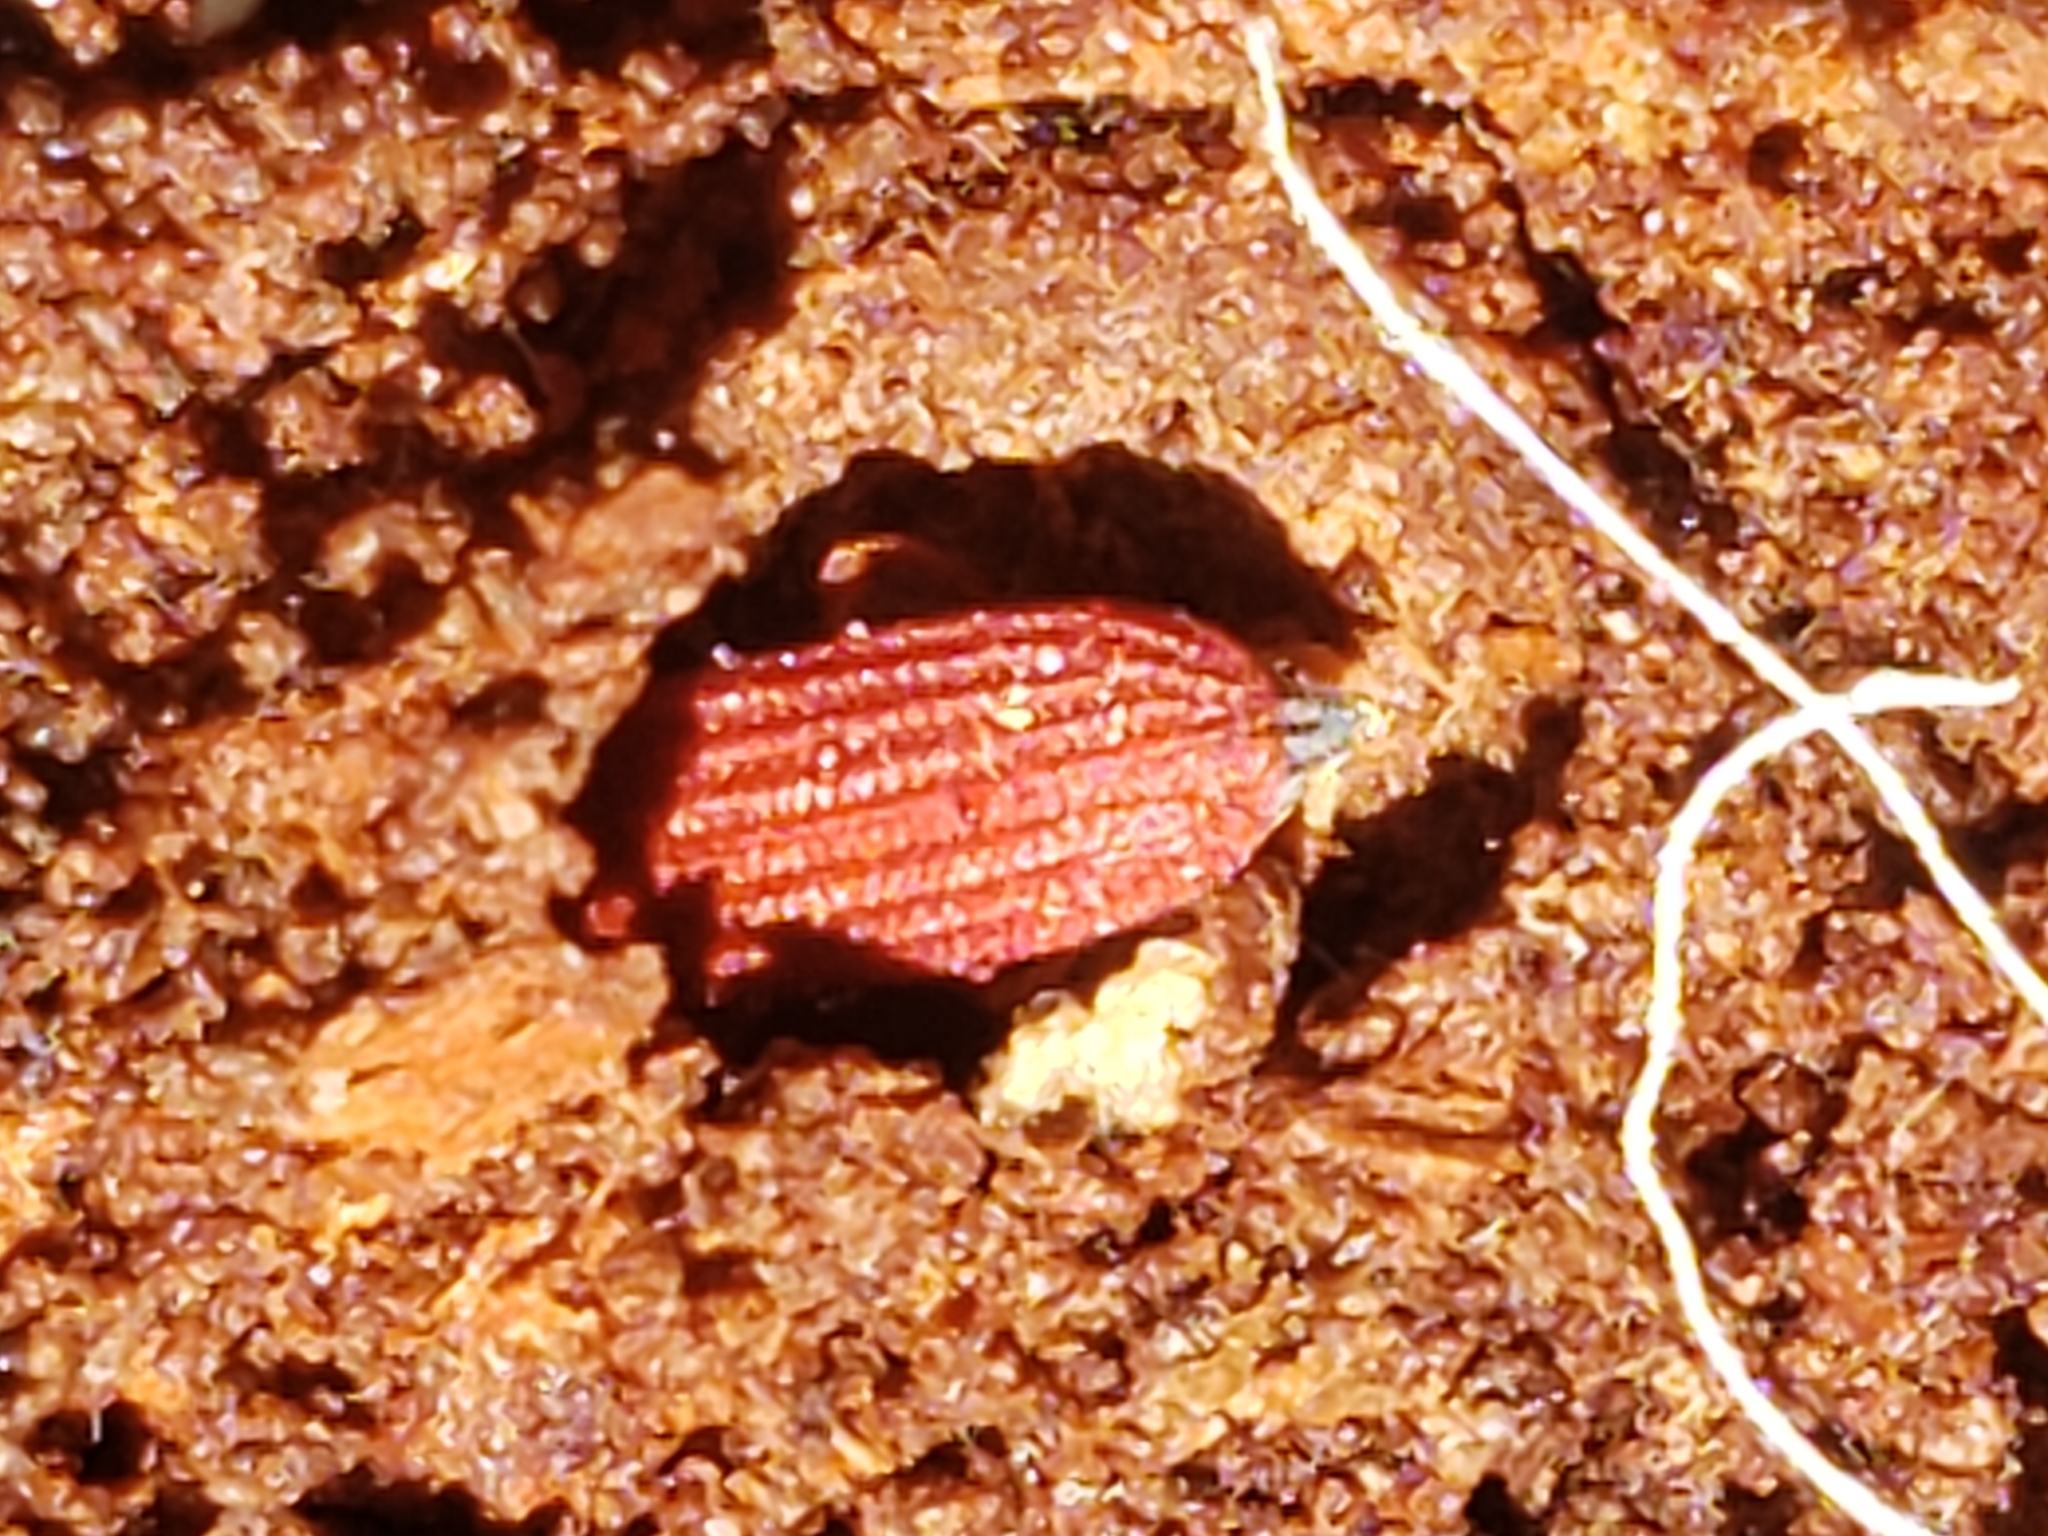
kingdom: Animalia
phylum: Arthropoda
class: Insecta
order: Coleoptera
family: Lycidae
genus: Punicealis
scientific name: Punicealis
